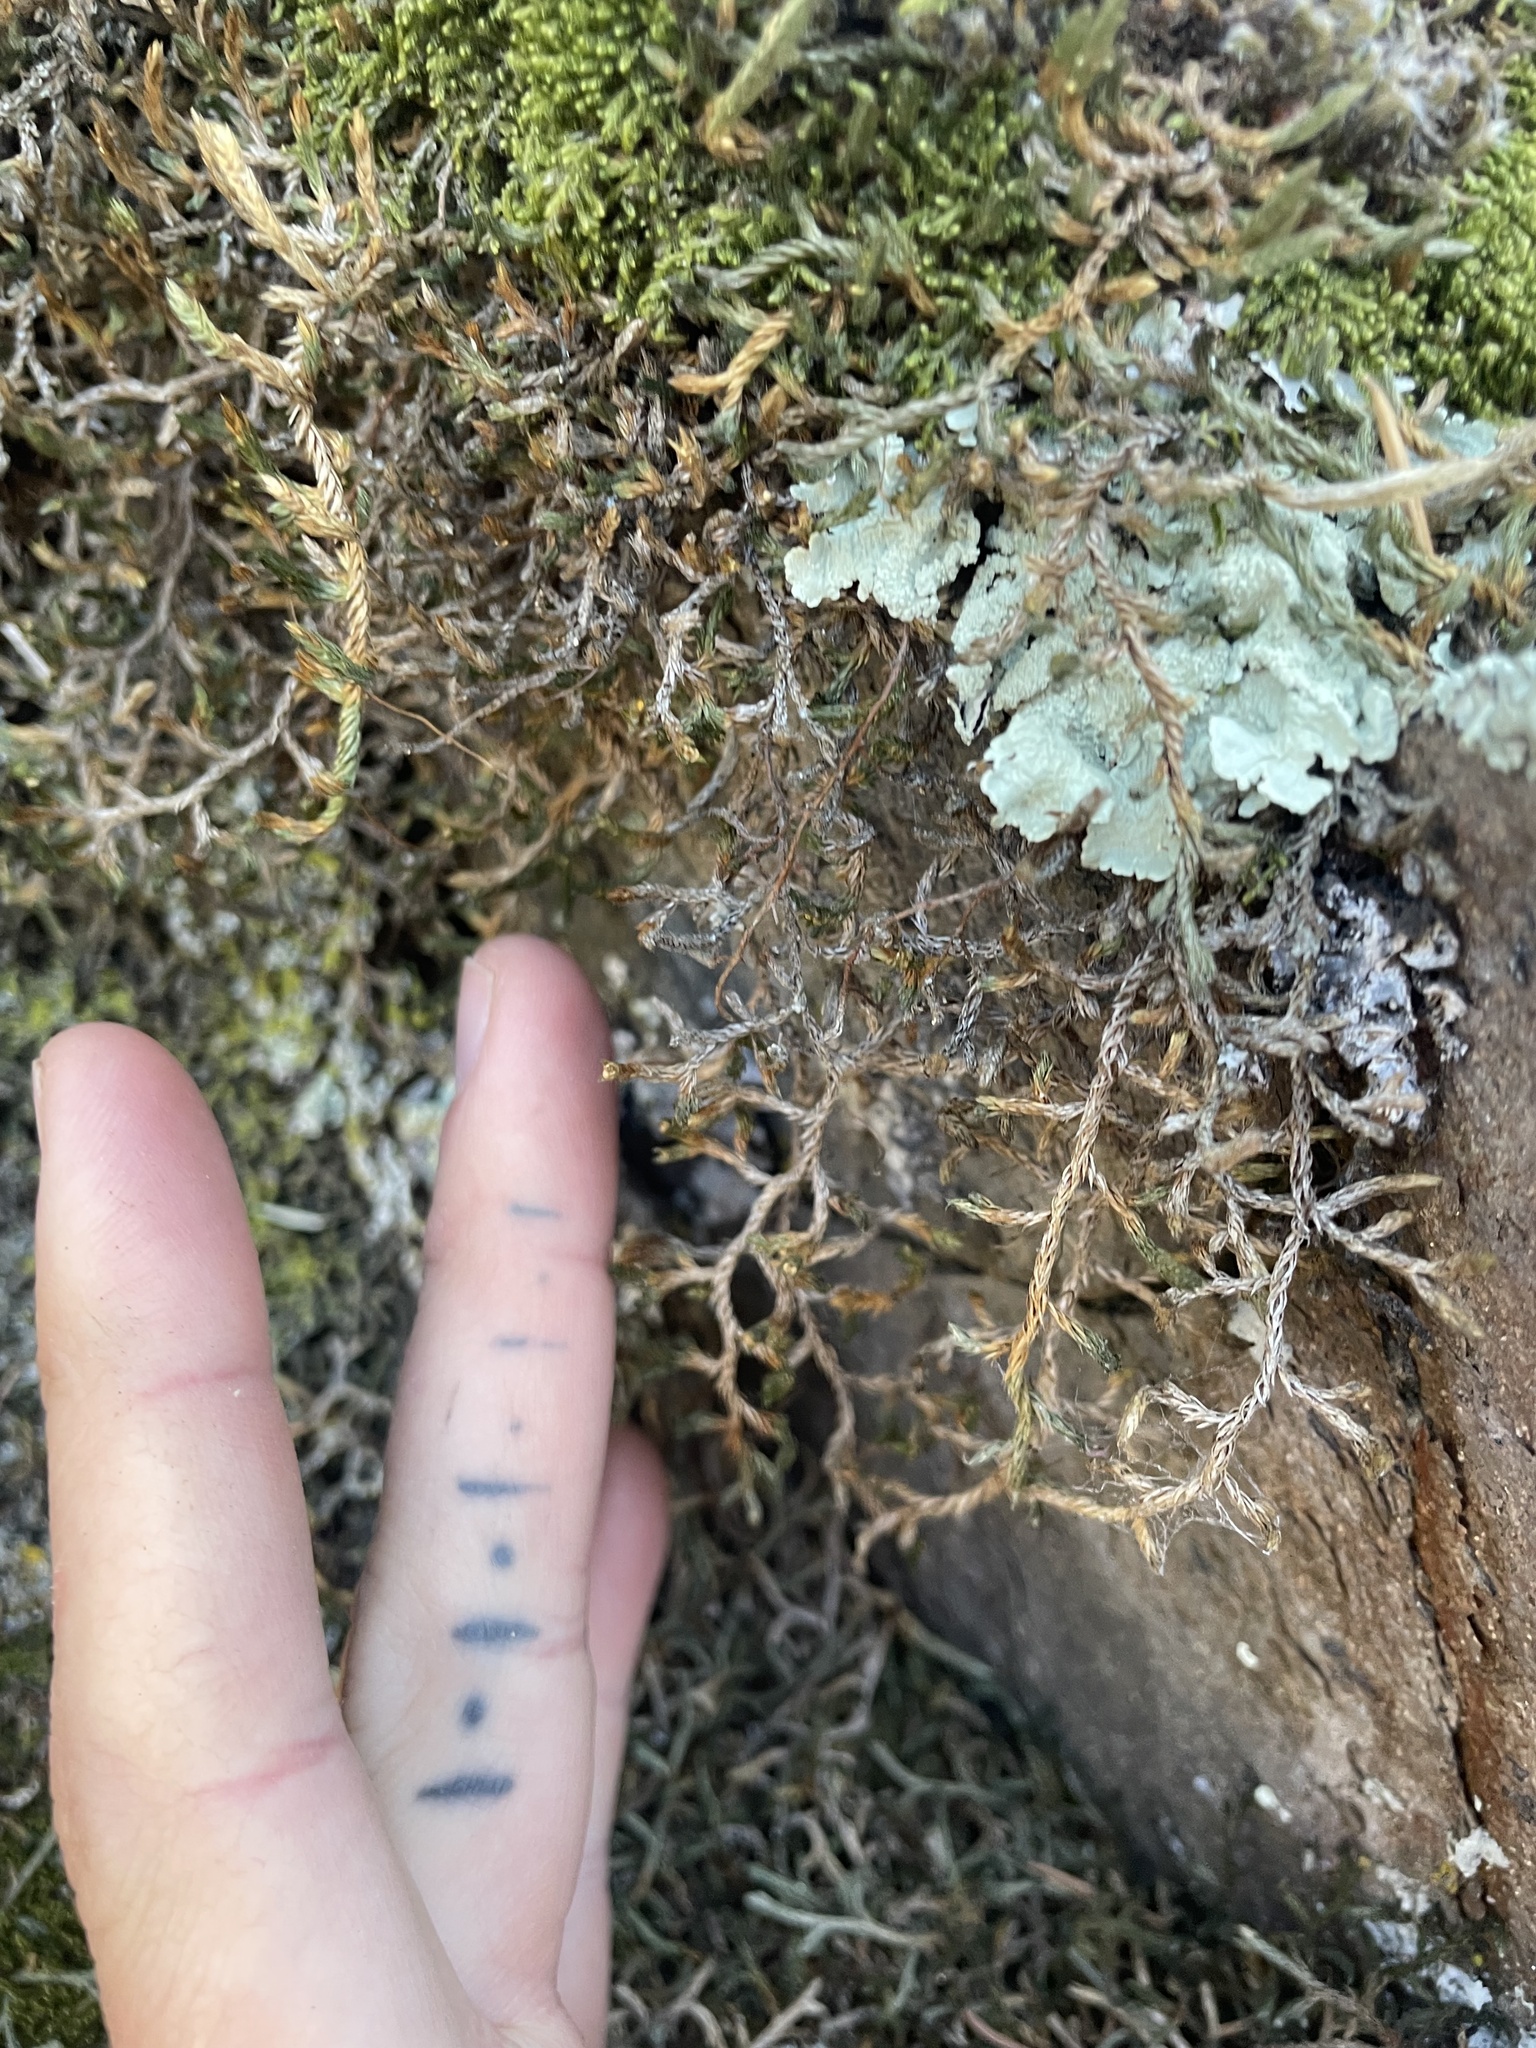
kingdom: Plantae
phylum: Tracheophyta
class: Lycopodiopsida
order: Selaginellales
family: Selaginellaceae
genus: Selaginella
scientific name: Selaginella underwoodii
